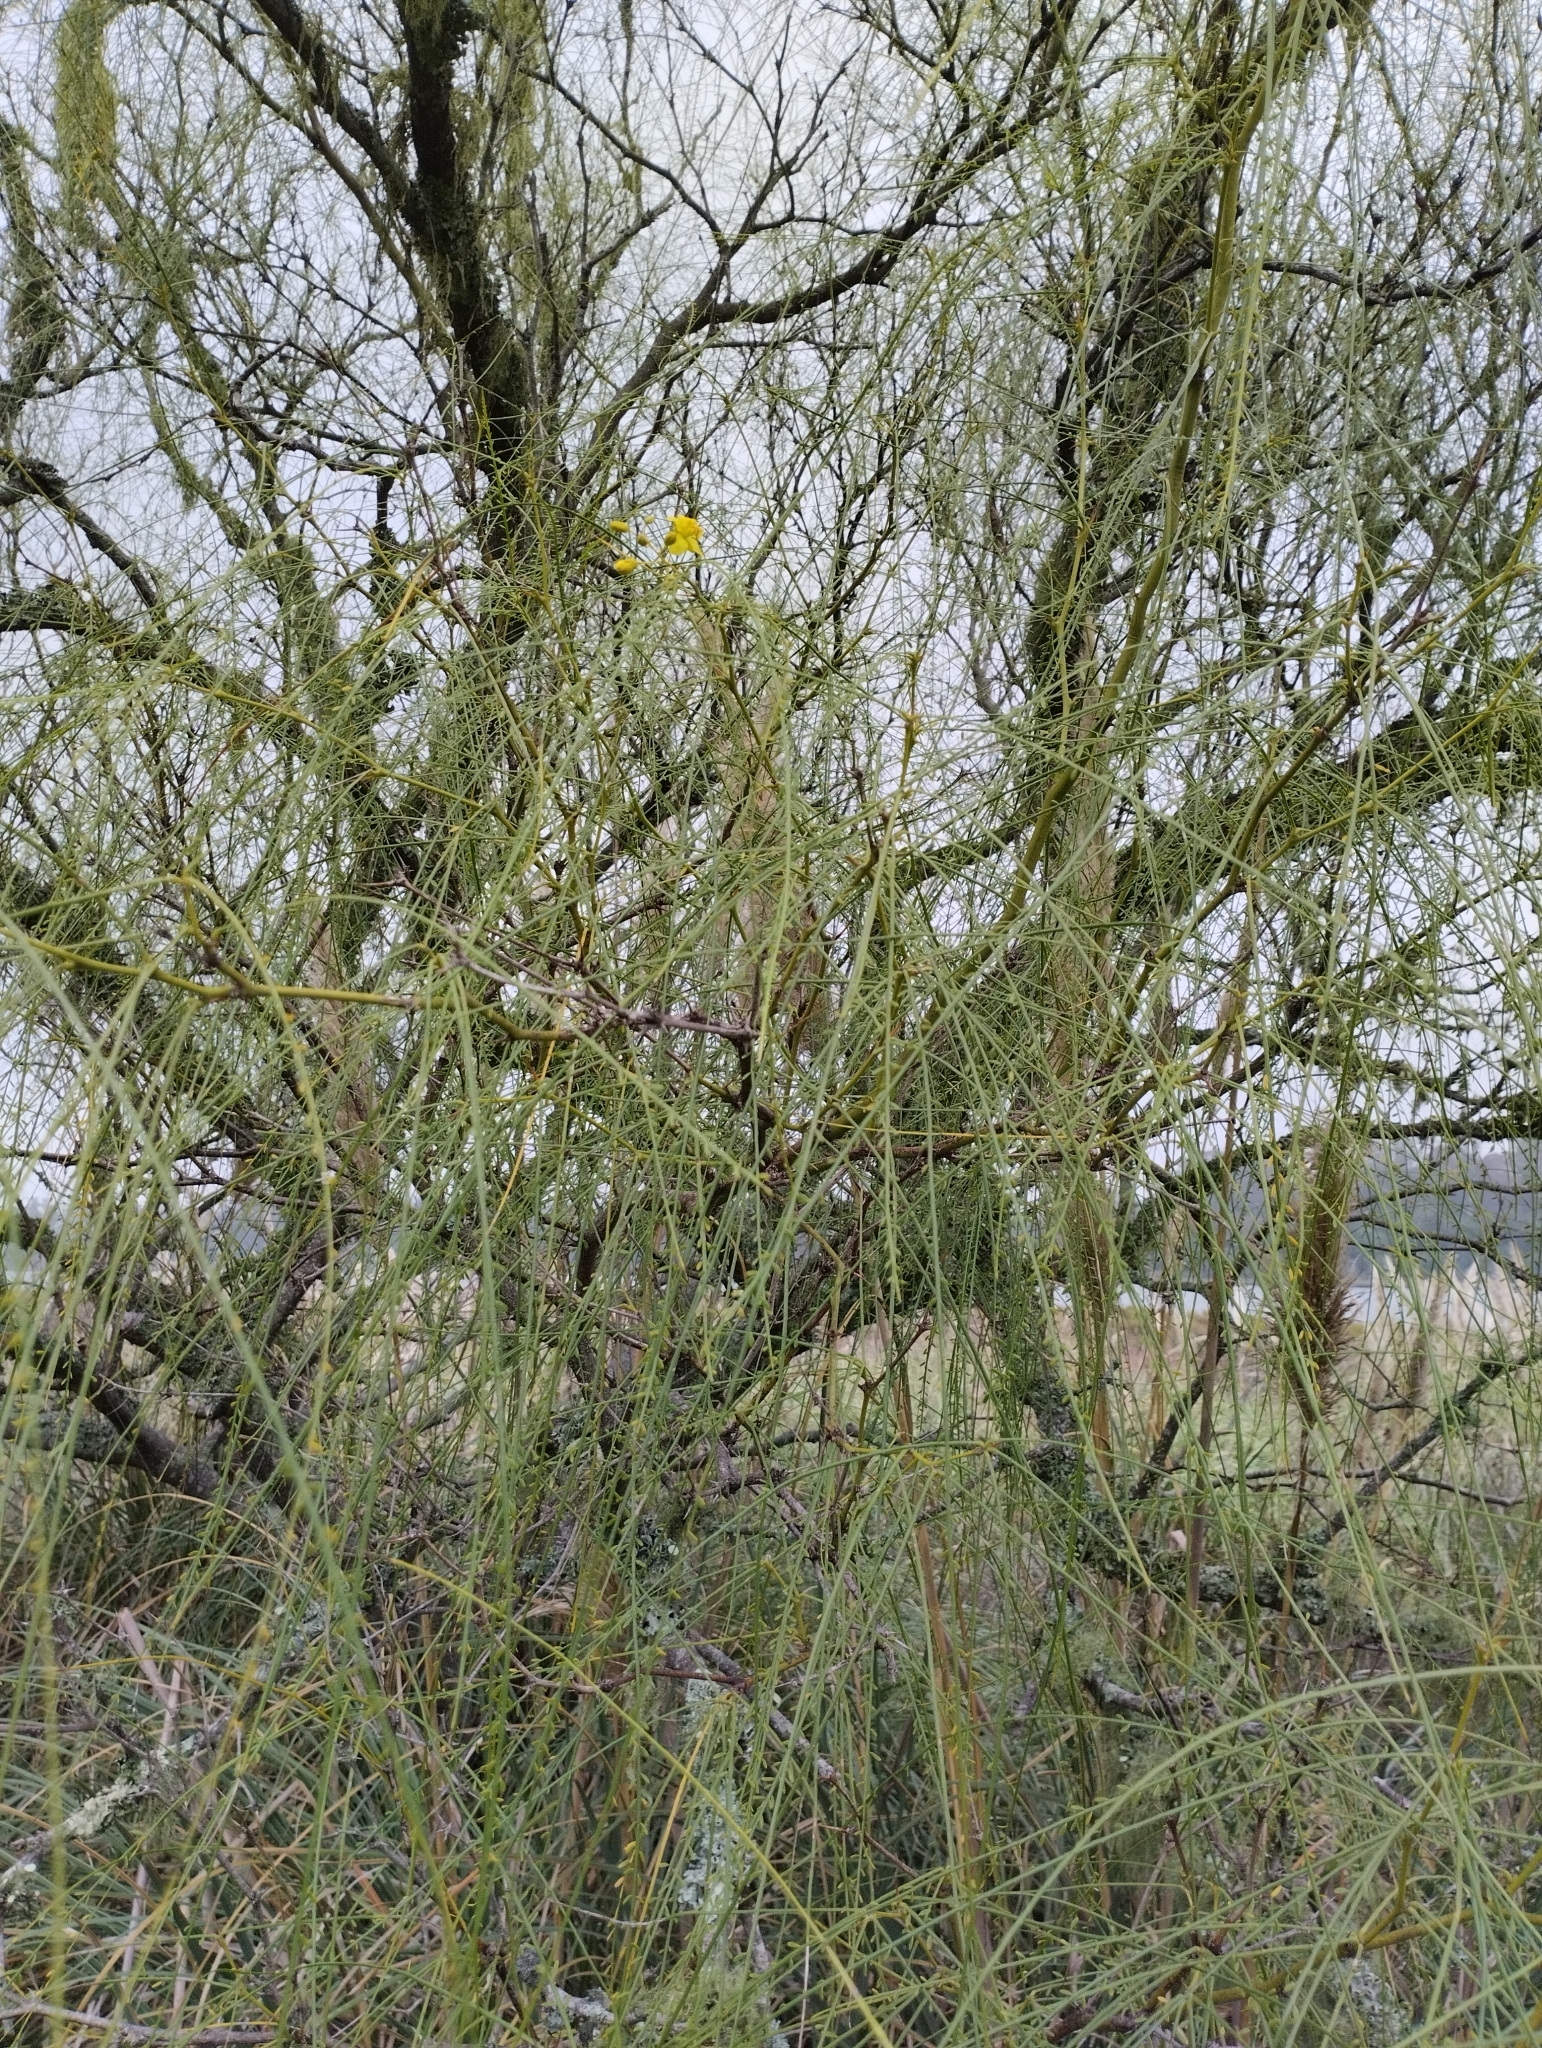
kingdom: Plantae
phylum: Tracheophyta
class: Magnoliopsida
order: Fabales
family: Fabaceae
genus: Parkinsonia
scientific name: Parkinsonia aculeata
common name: Jerusalem thorn
